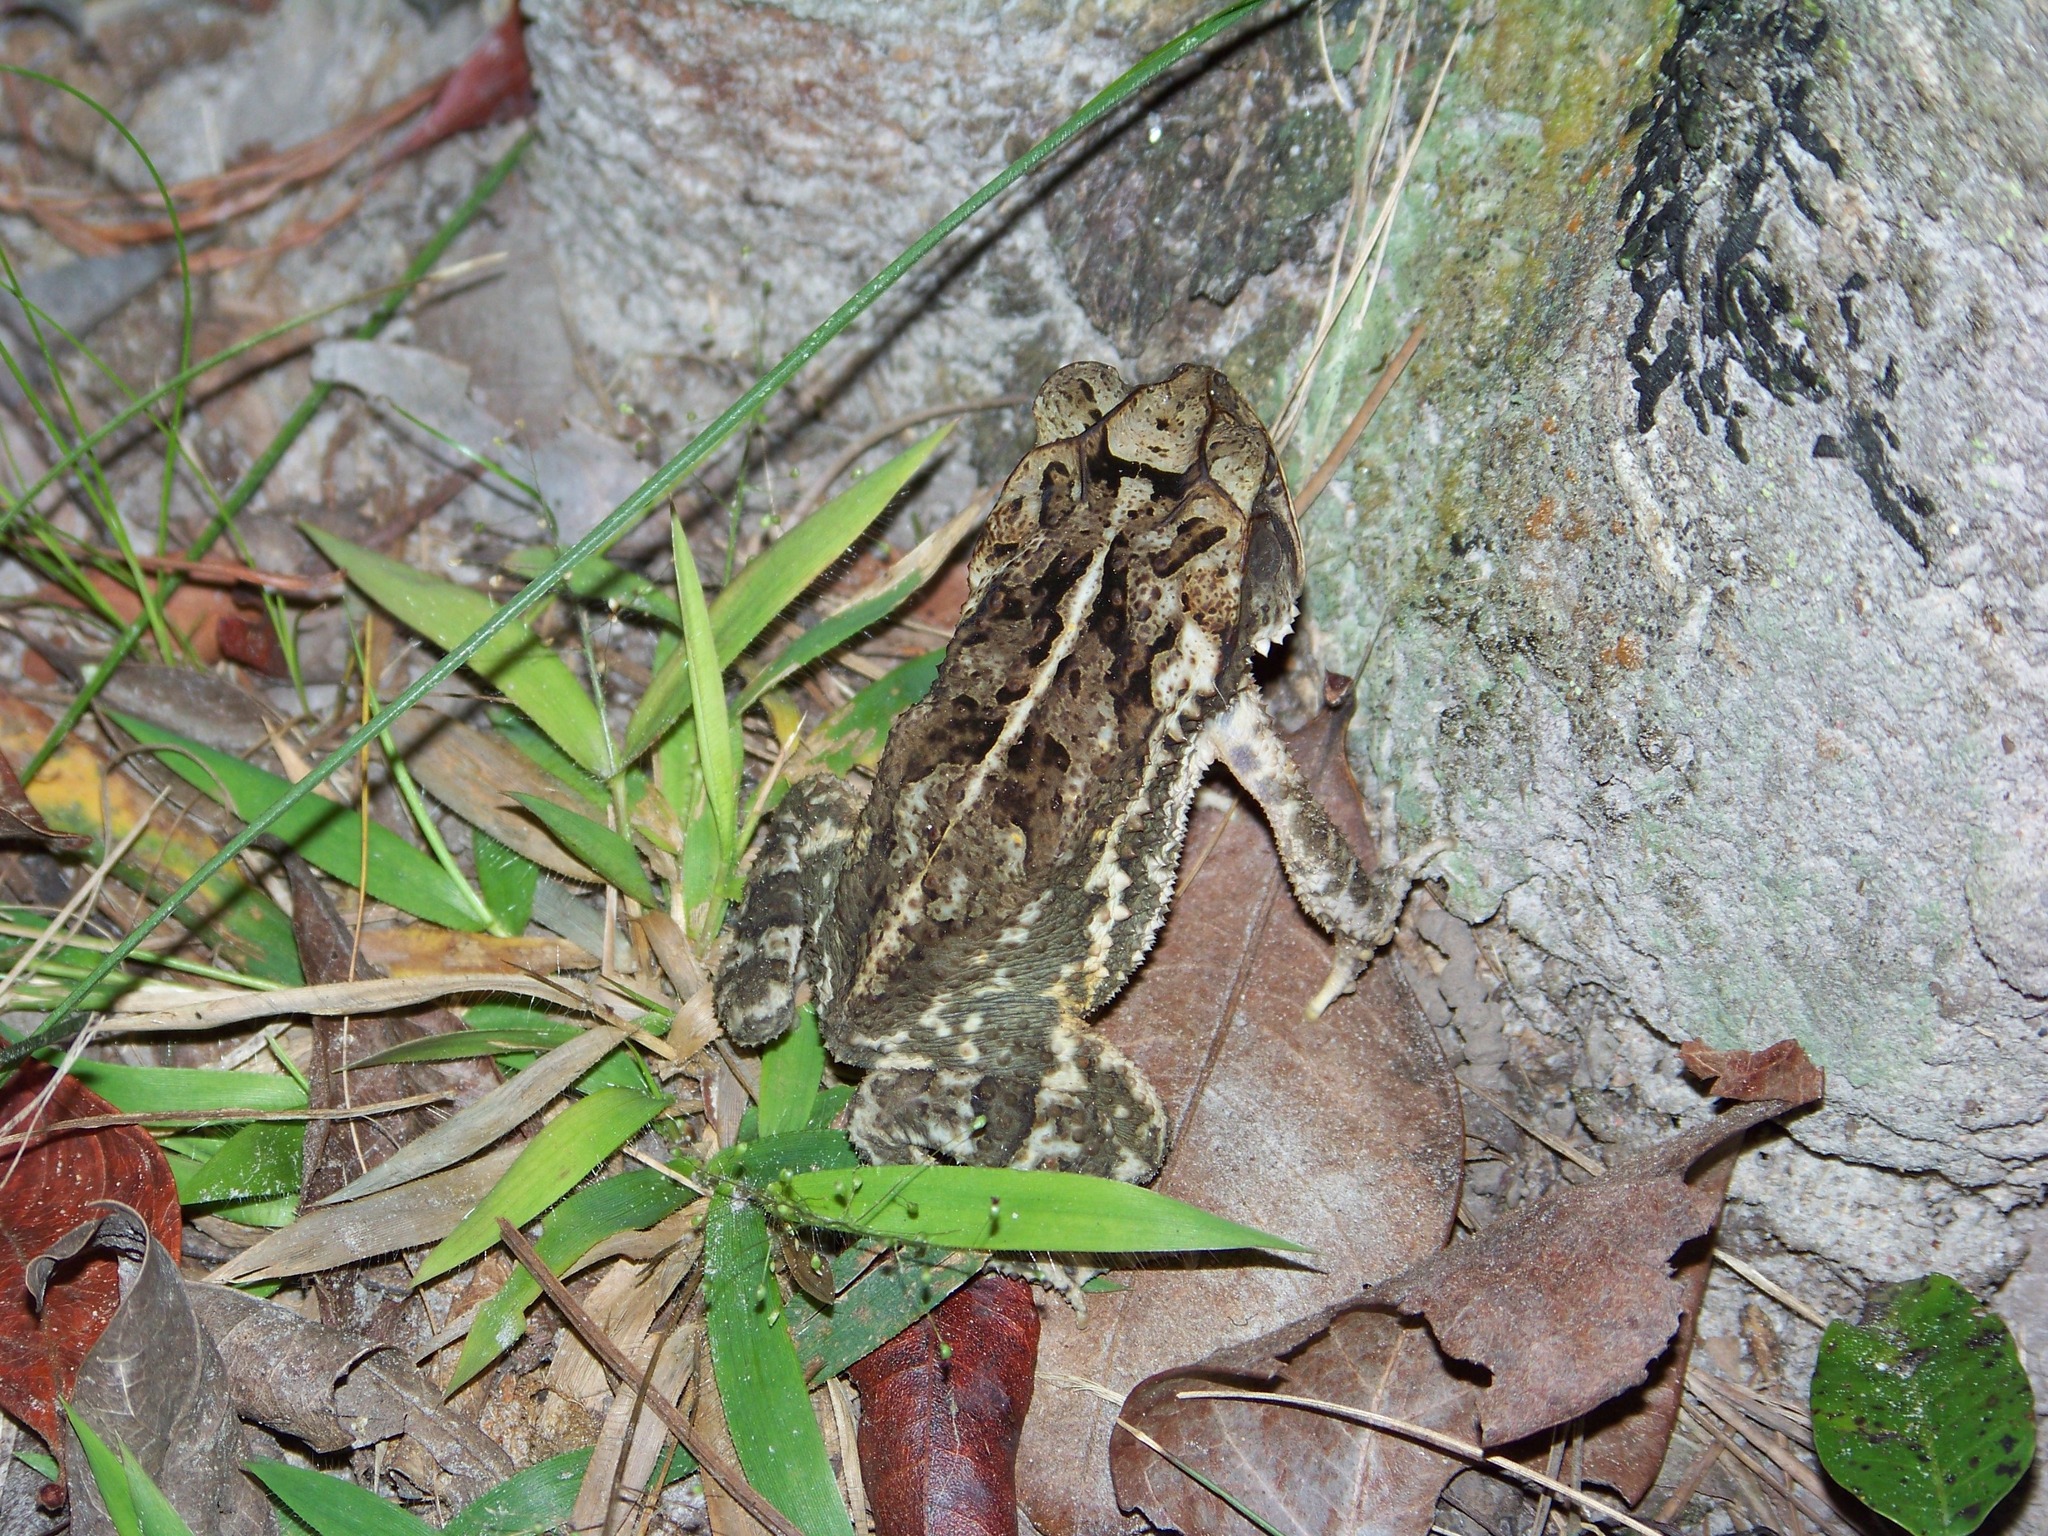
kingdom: Animalia
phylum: Chordata
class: Amphibia
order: Anura
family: Bufonidae
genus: Incilius
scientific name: Incilius valliceps
